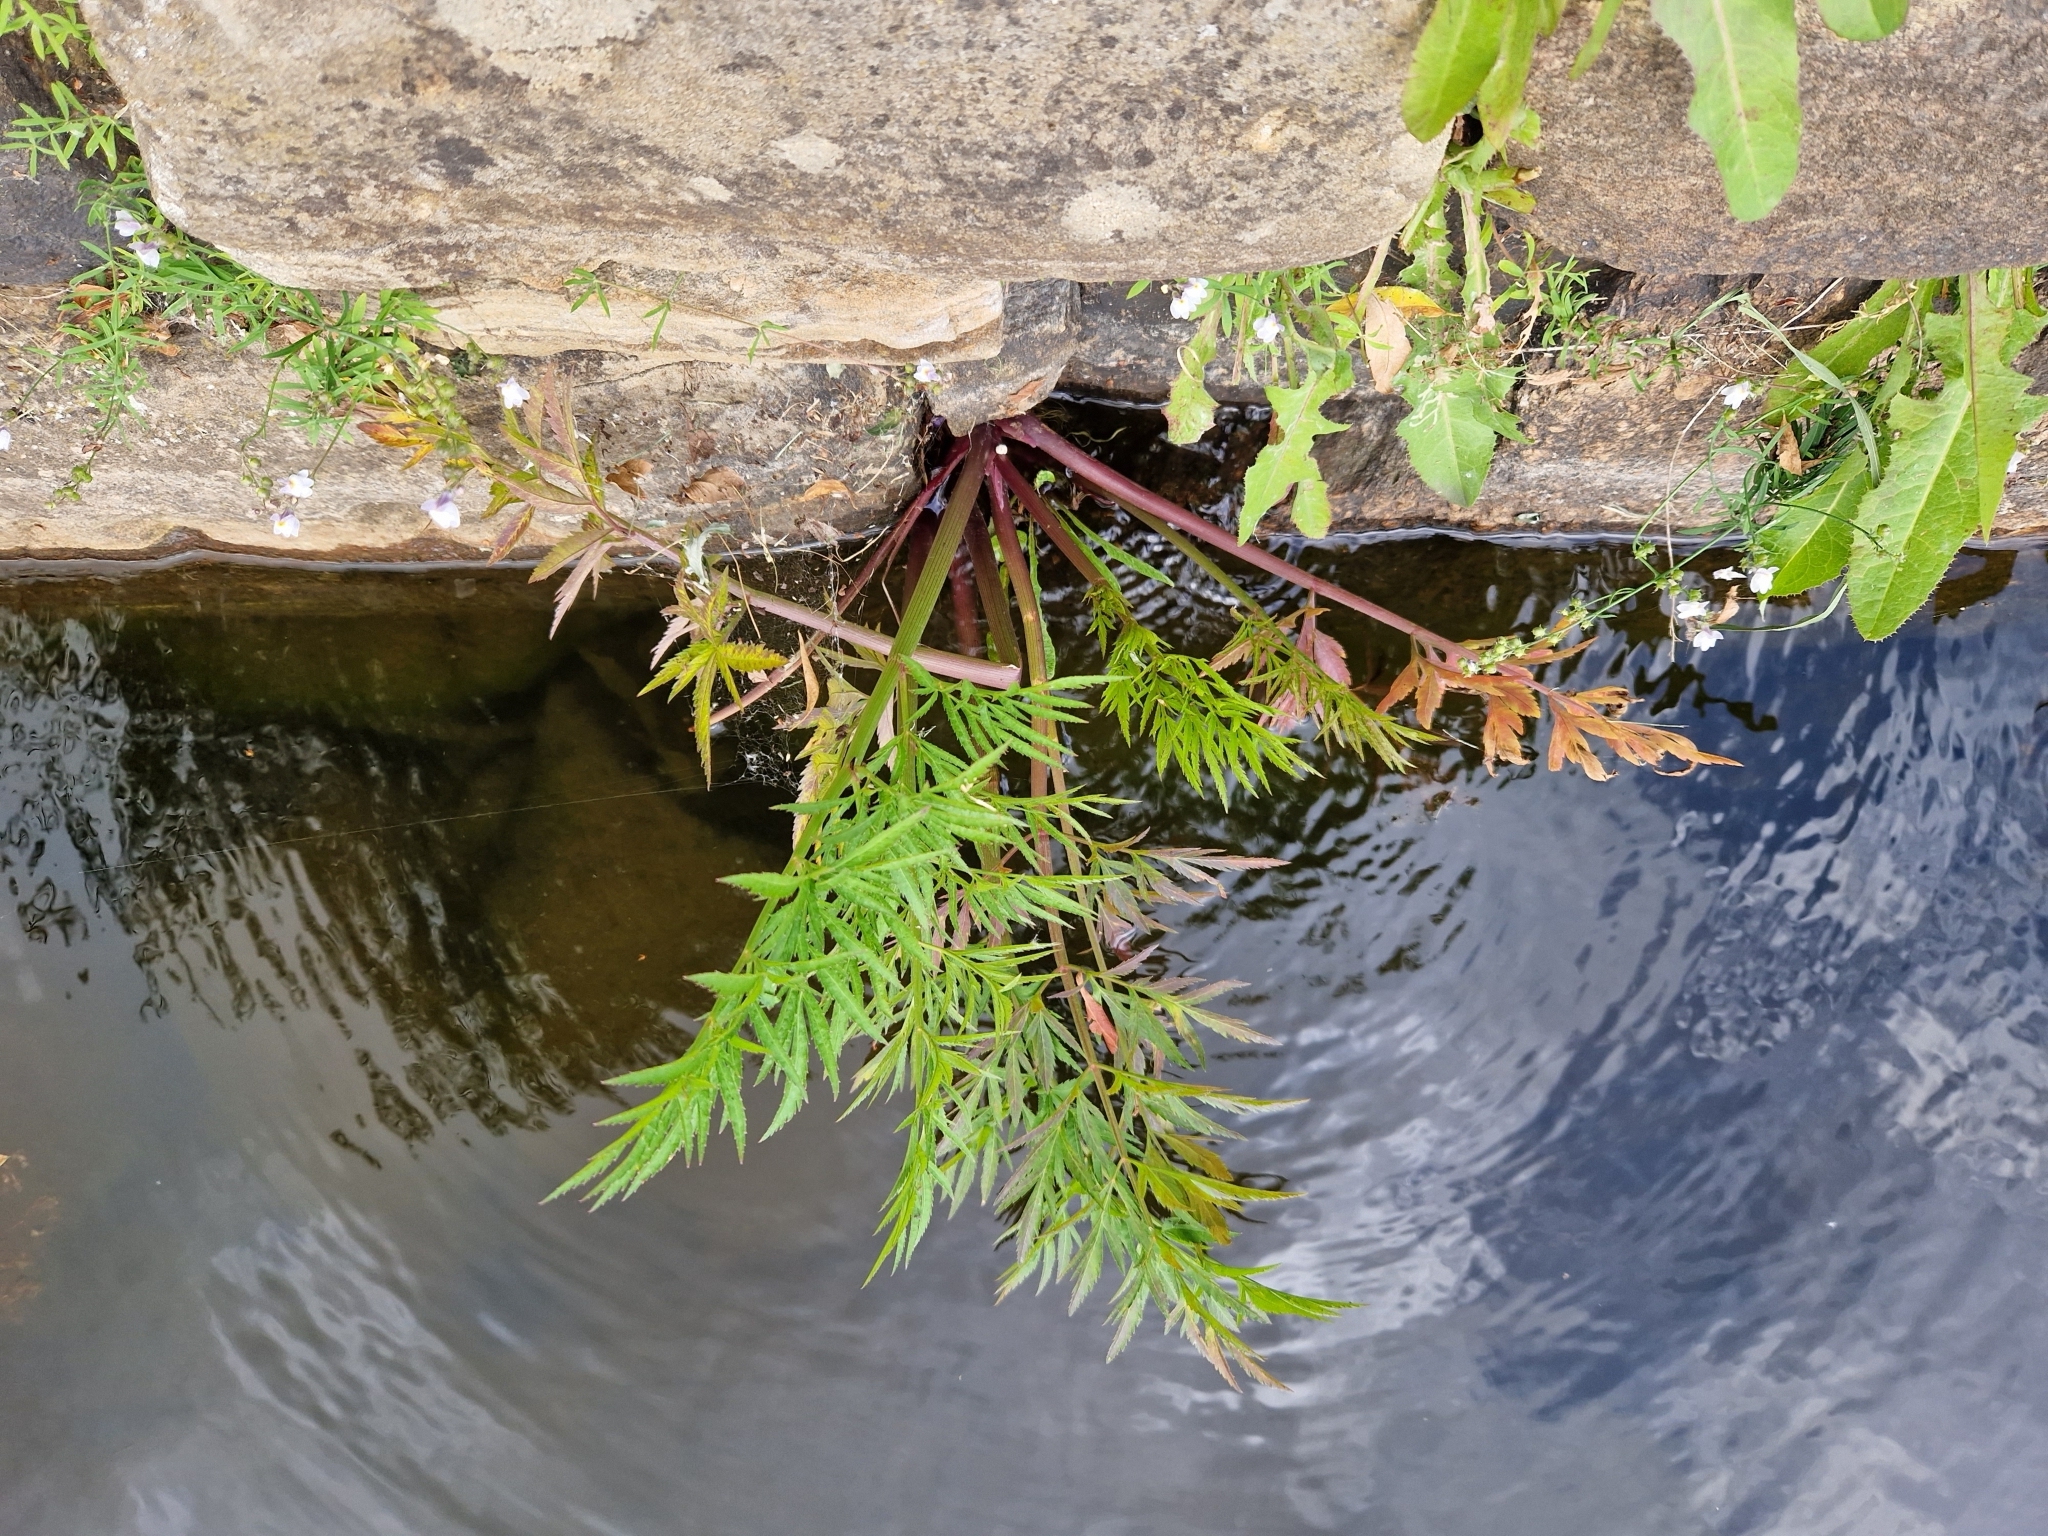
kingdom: Plantae
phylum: Tracheophyta
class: Magnoliopsida
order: Apiales
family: Apiaceae
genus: Cicuta
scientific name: Cicuta virosa
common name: Cowbane
